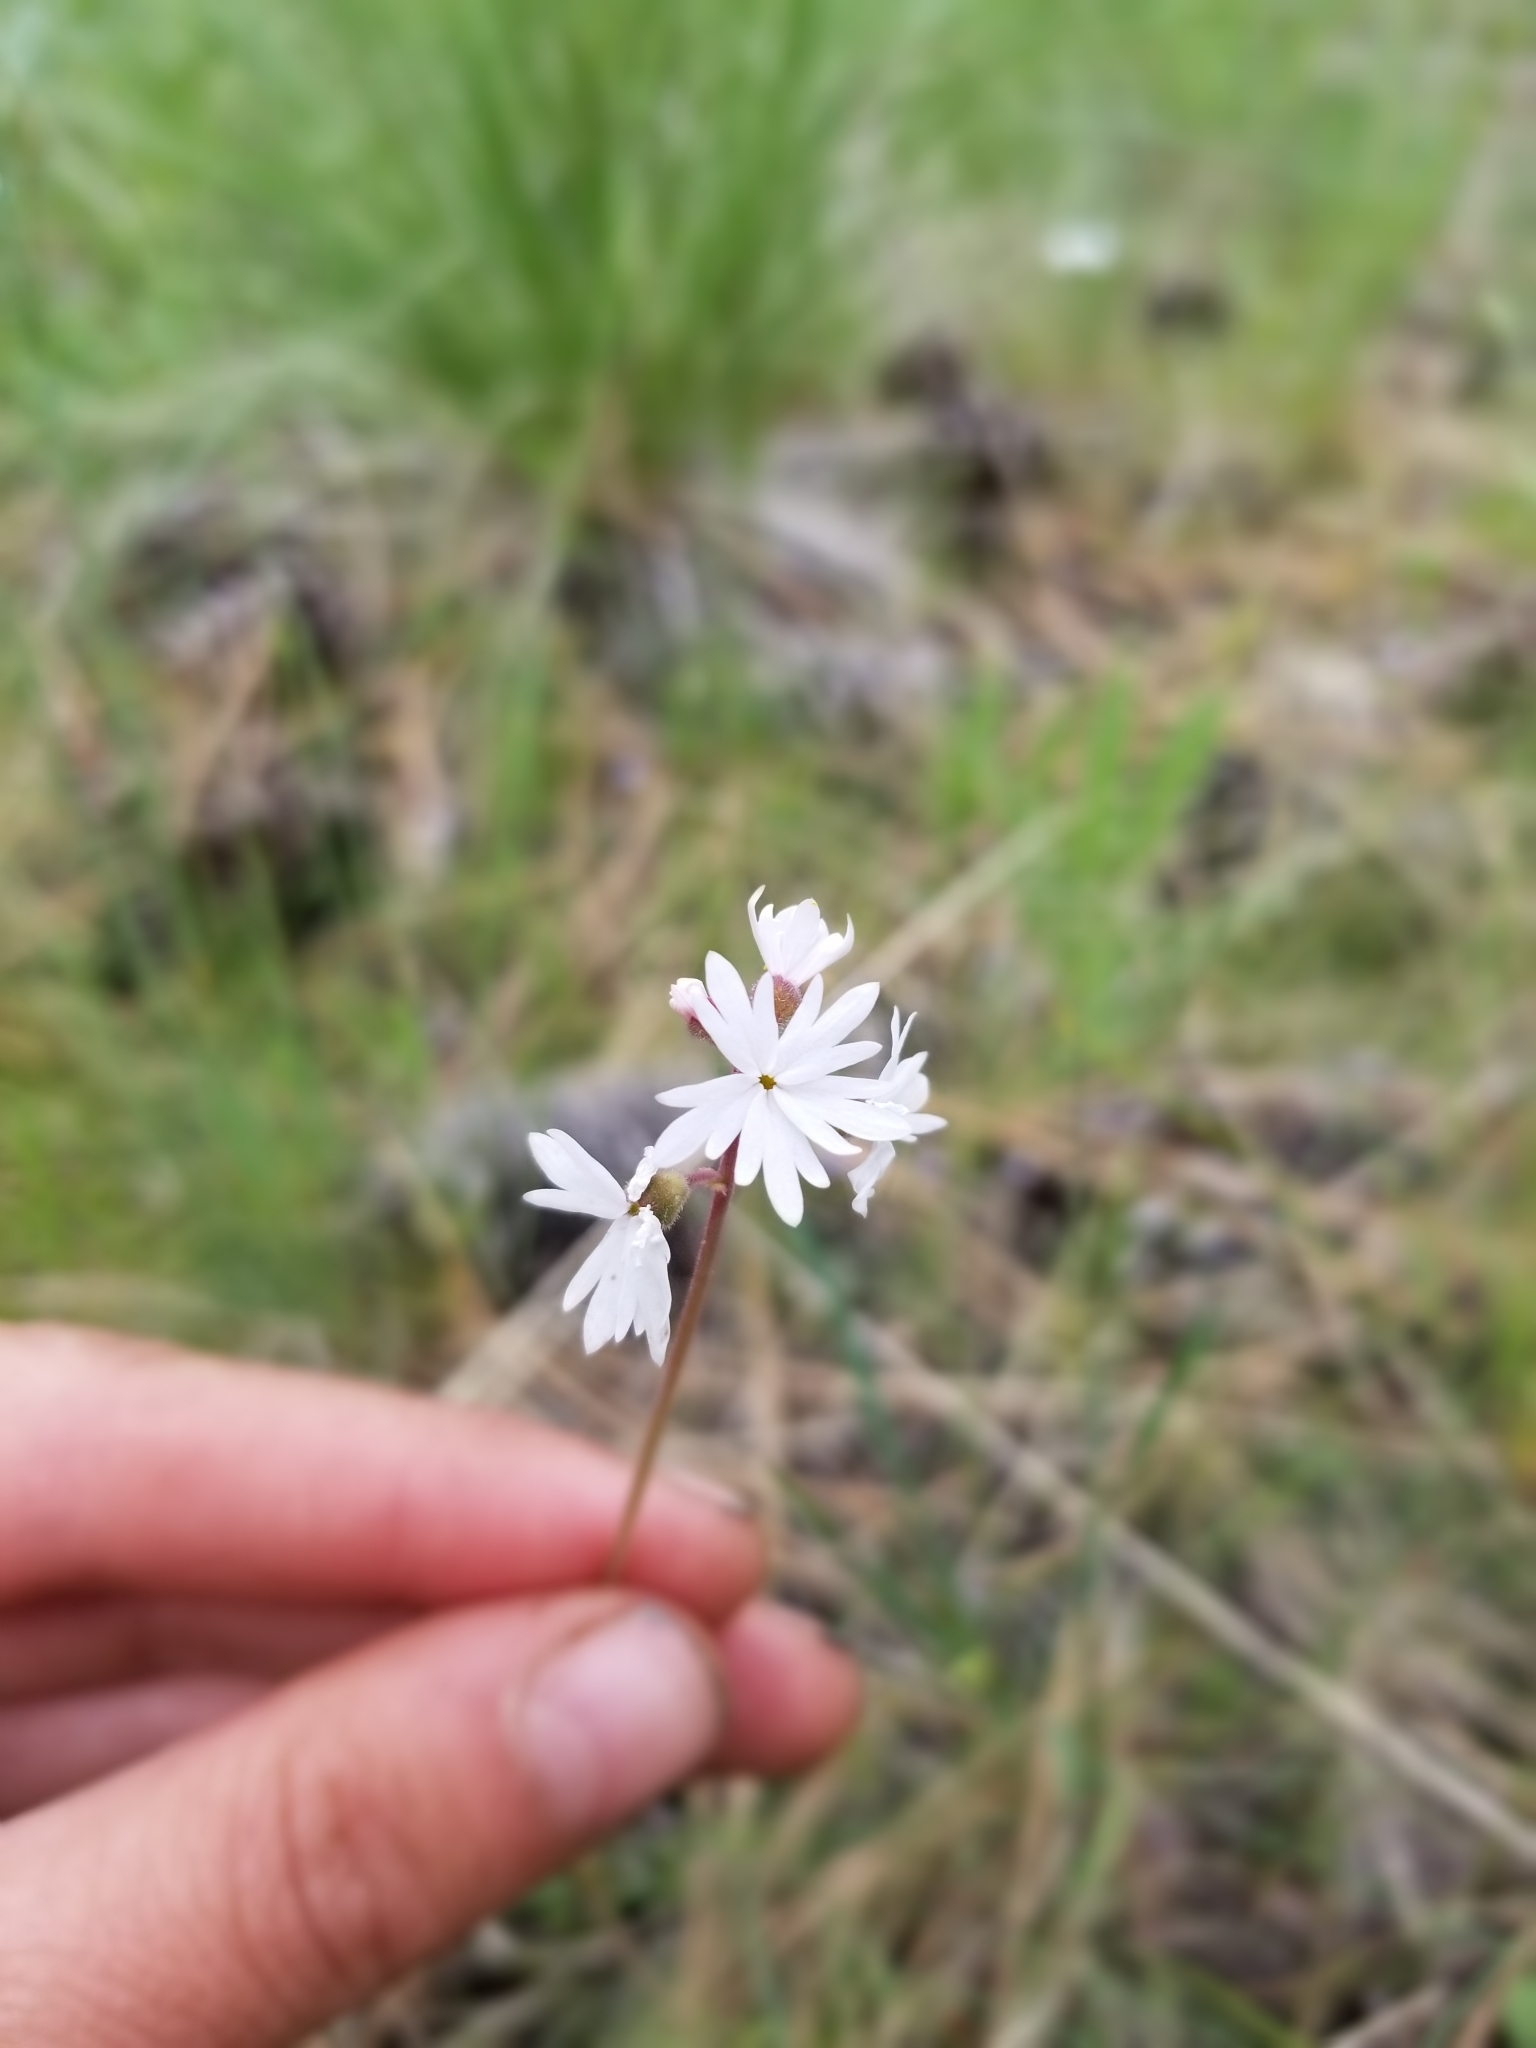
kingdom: Plantae
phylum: Tracheophyta
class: Magnoliopsida
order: Saxifragales
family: Saxifragaceae
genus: Lithophragma
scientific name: Lithophragma parviflorum
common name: Small-flowered fringe-cup
